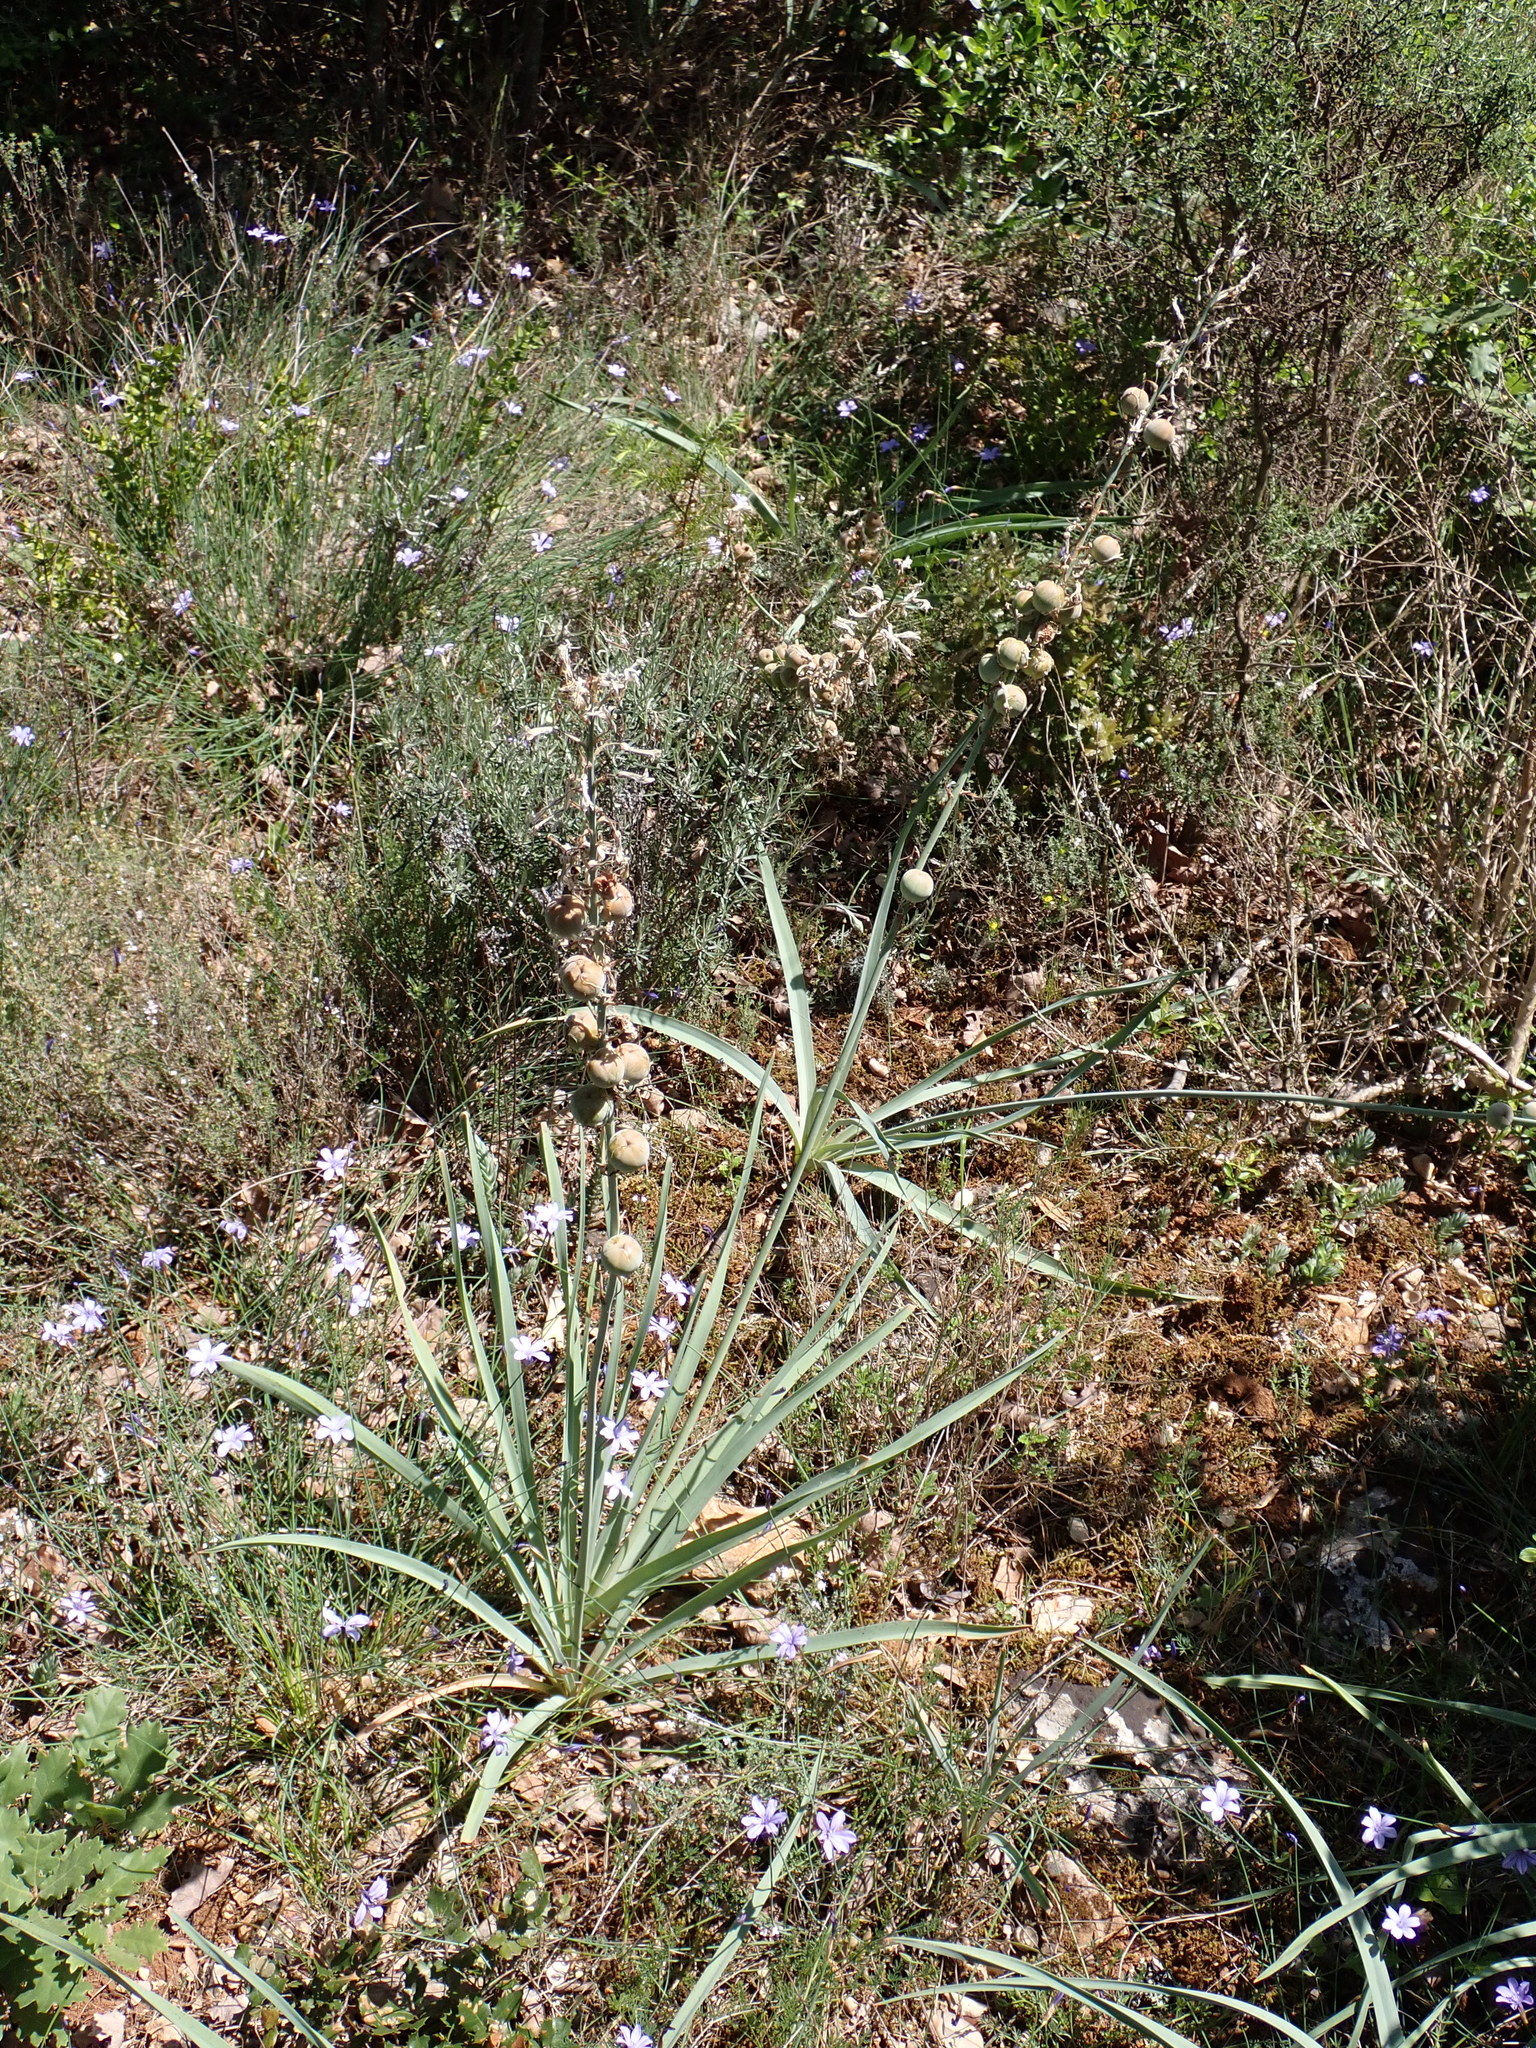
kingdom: Plantae
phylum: Tracheophyta
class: Liliopsida
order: Asparagales
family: Asphodelaceae
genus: Asphodelus
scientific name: Asphodelus cerasifer
